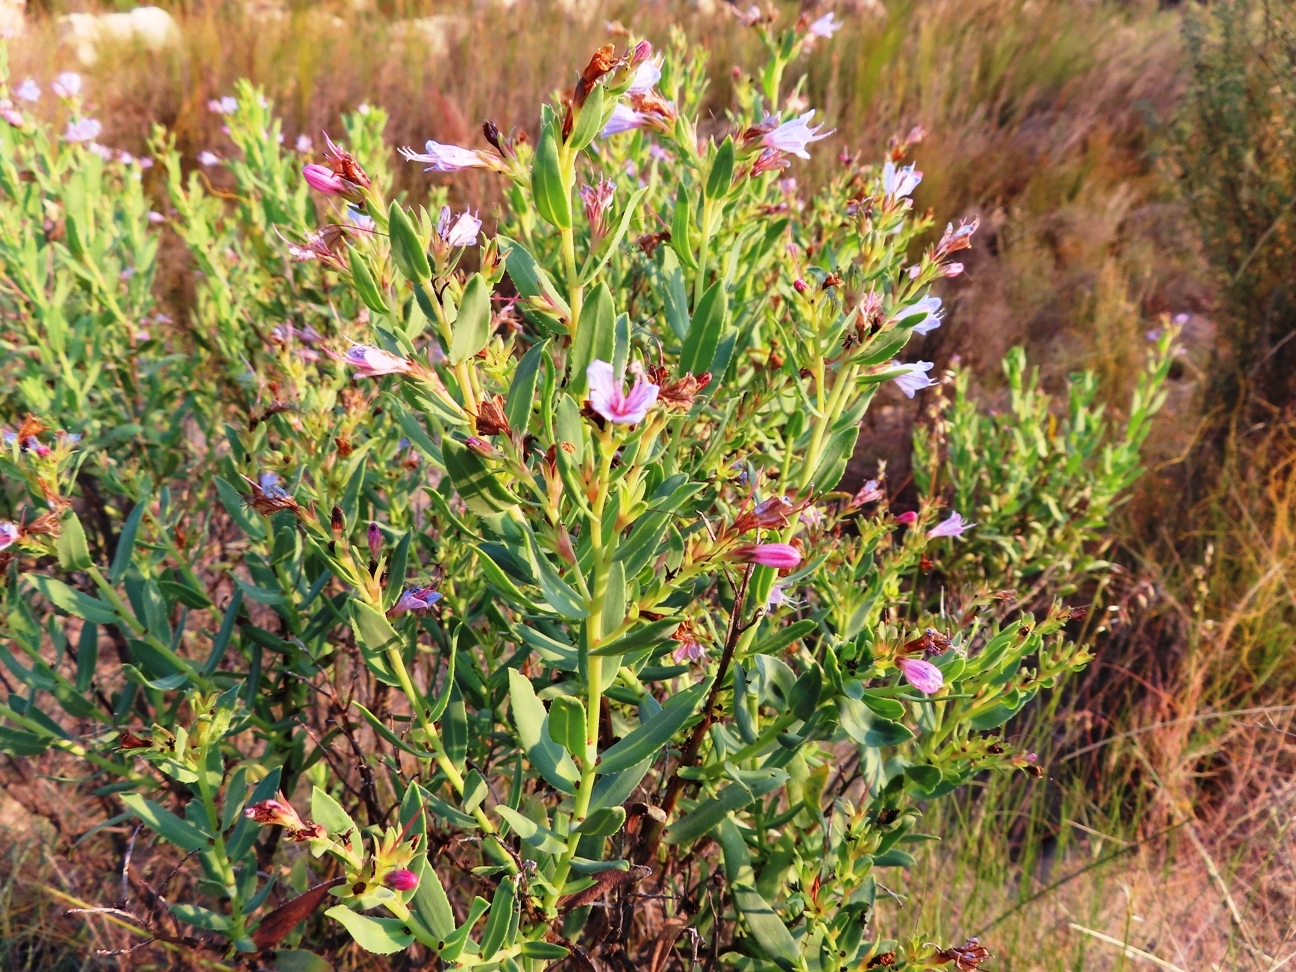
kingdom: Plantae
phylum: Tracheophyta
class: Magnoliopsida
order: Boraginales
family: Boraginaceae
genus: Lobostemon
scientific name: Lobostemon laevigatus
